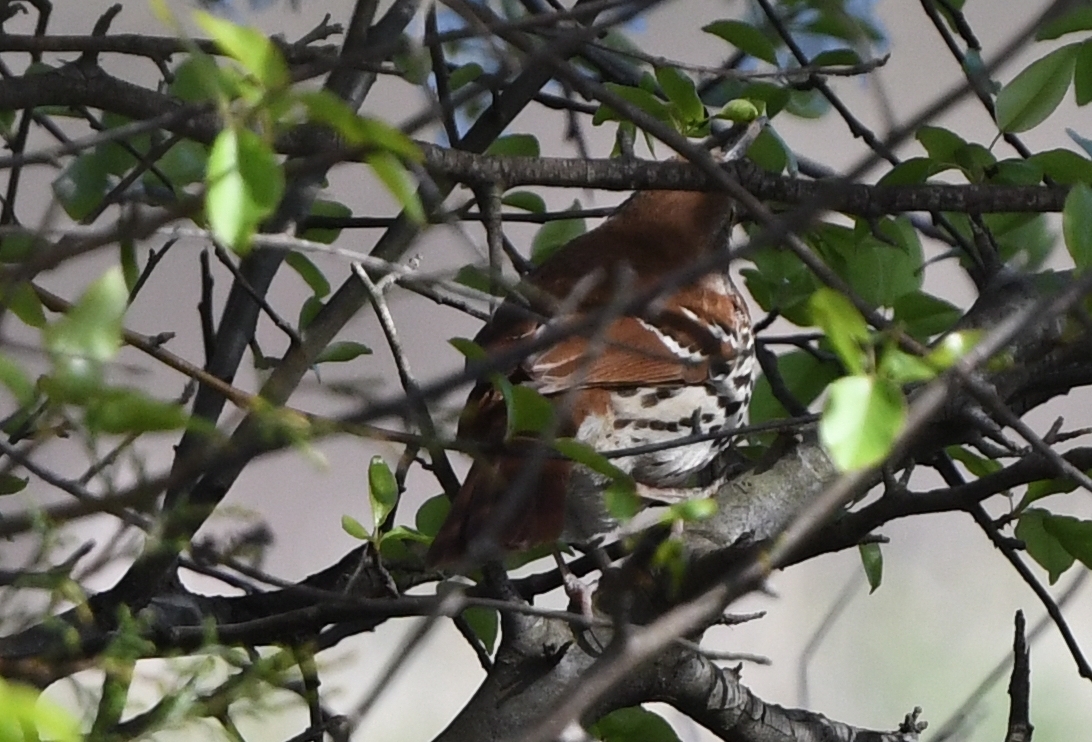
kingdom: Animalia
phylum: Chordata
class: Aves
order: Passeriformes
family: Mimidae
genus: Toxostoma
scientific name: Toxostoma rufum
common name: Brown thrasher
